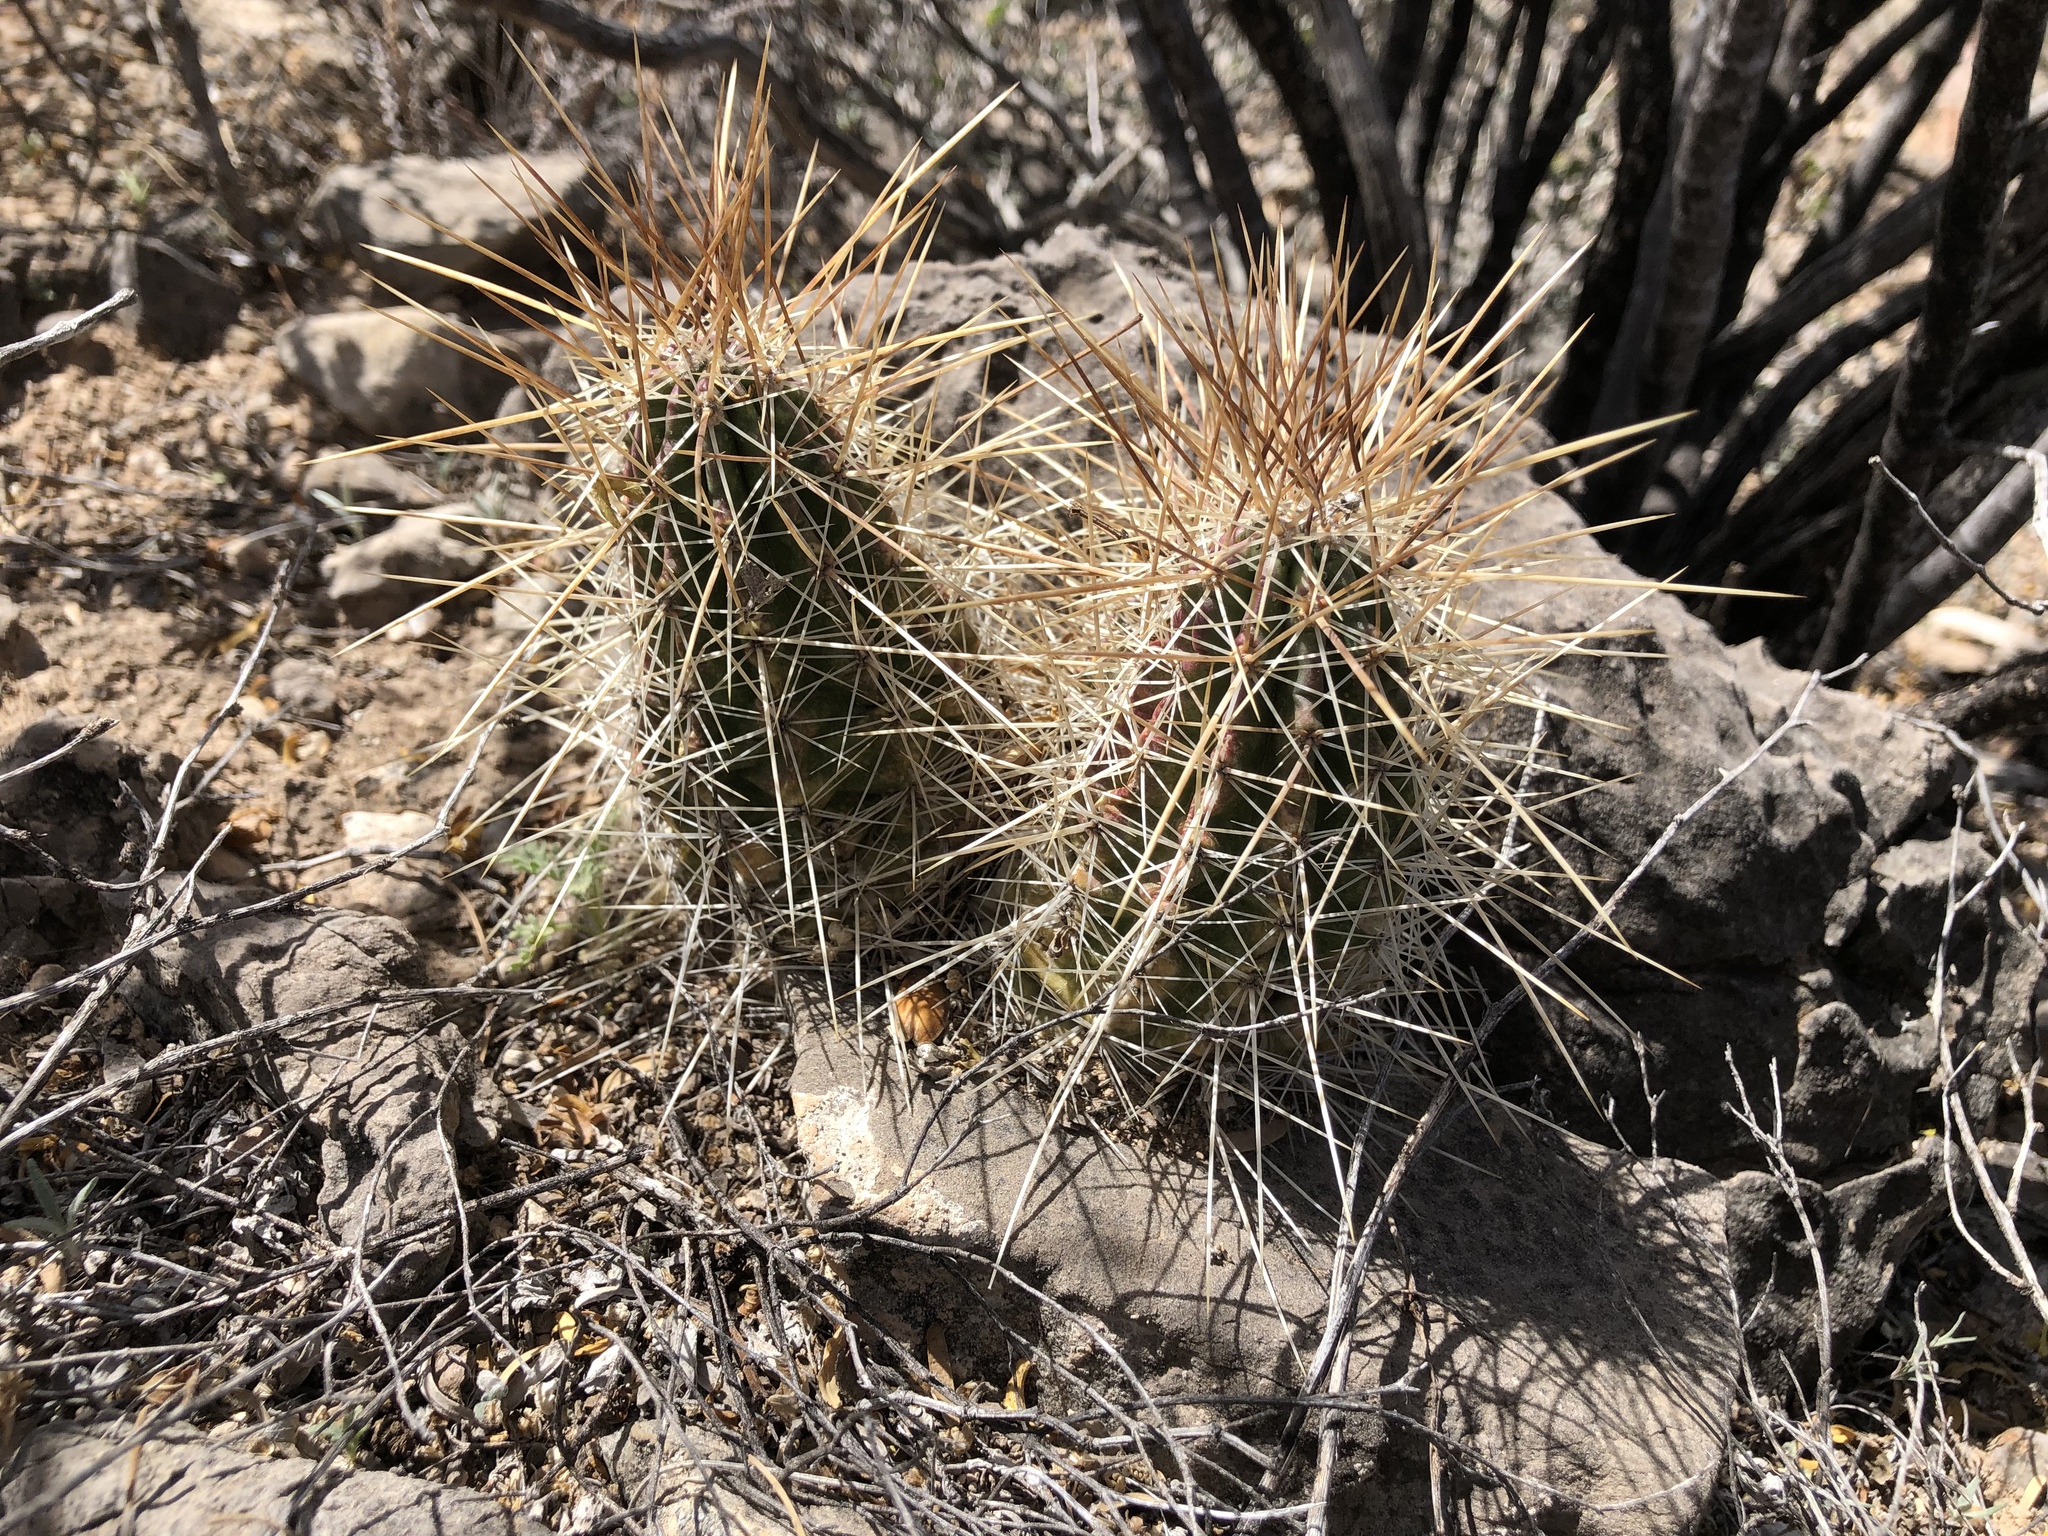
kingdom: Plantae
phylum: Tracheophyta
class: Magnoliopsida
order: Caryophyllales
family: Cactaceae
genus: Echinocereus
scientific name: Echinocereus stramineus
